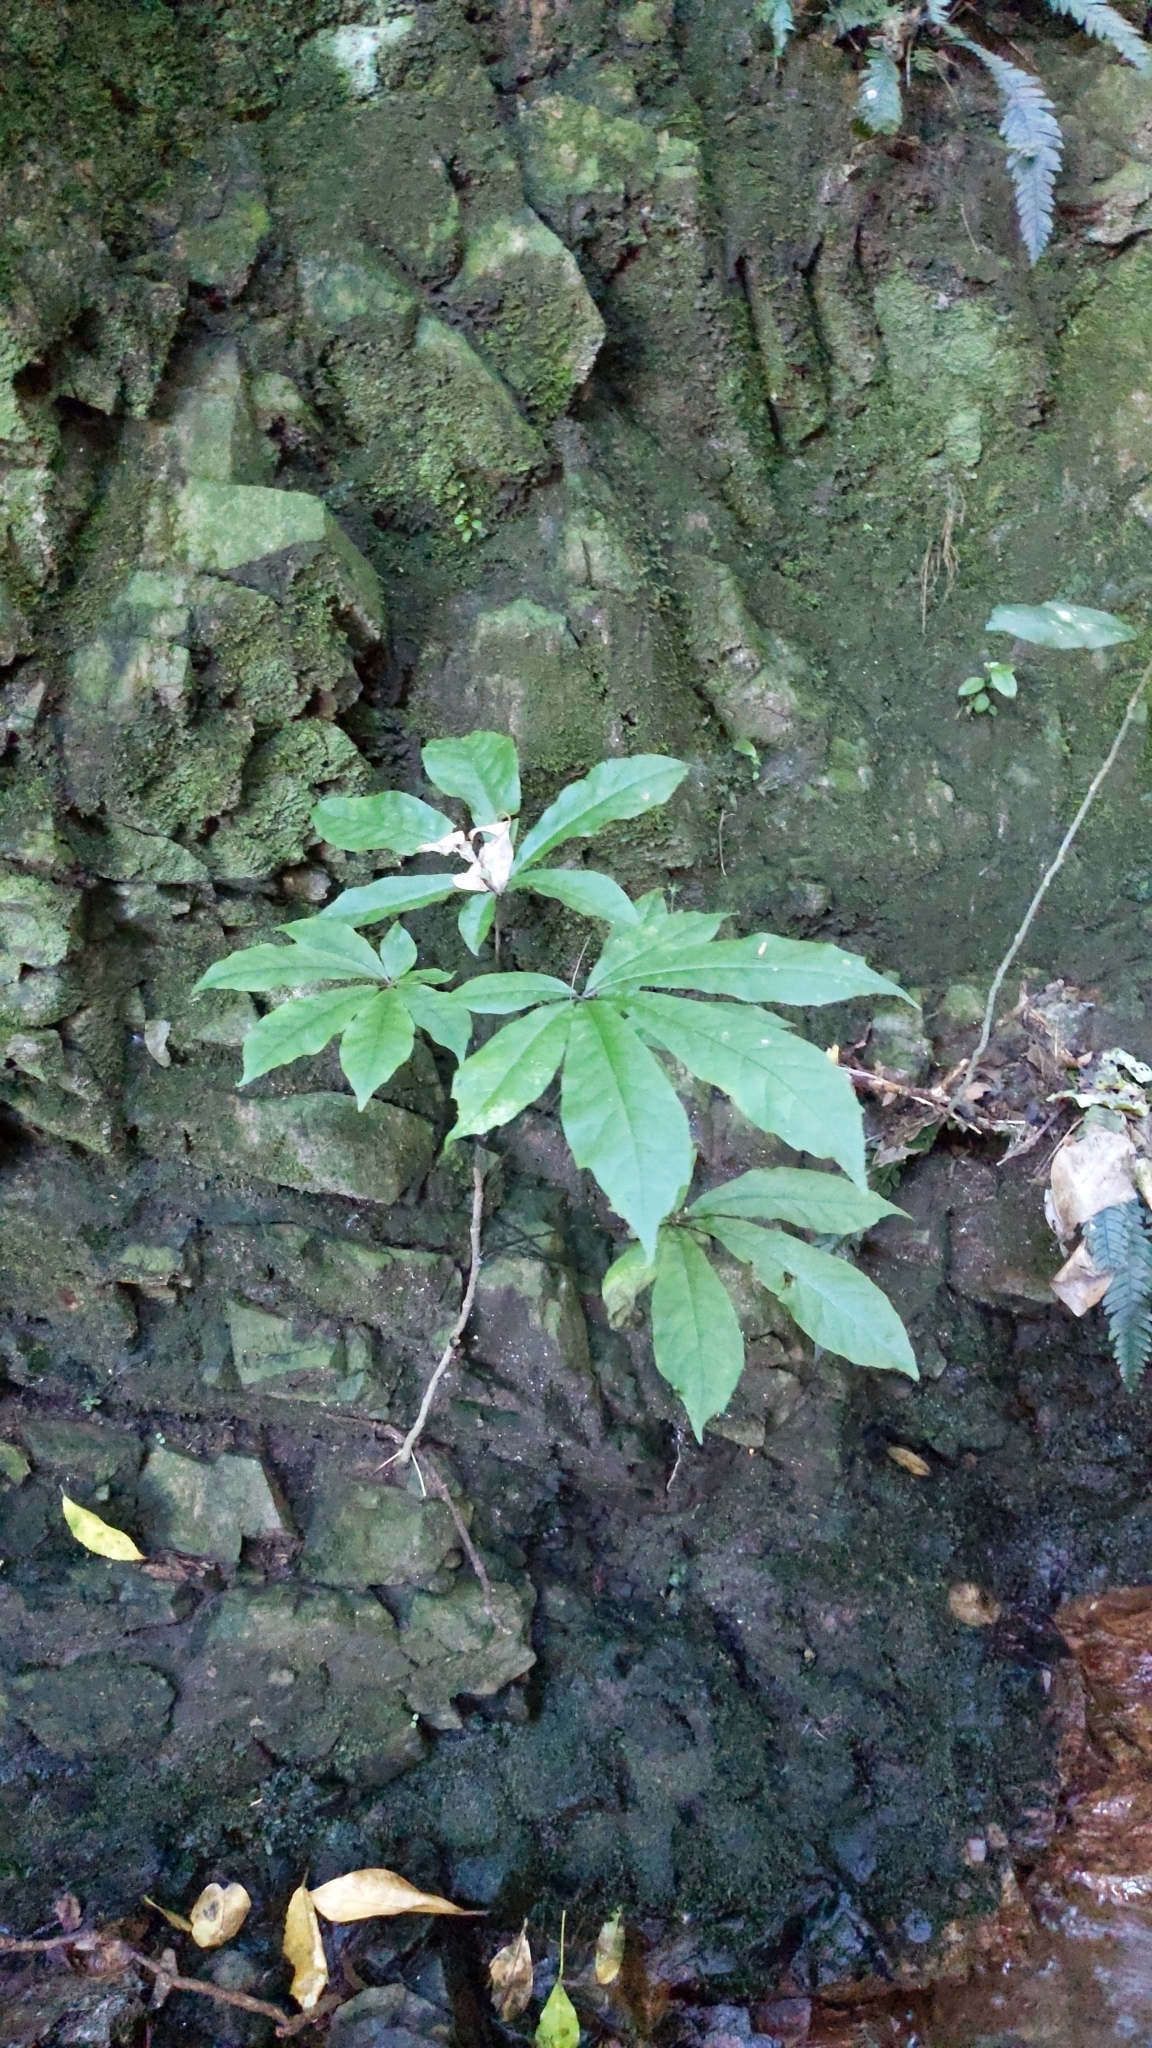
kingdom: Plantae
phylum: Tracheophyta
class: Magnoliopsida
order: Apiales
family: Araliaceae
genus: Schefflera
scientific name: Schefflera digitata
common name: Pate
